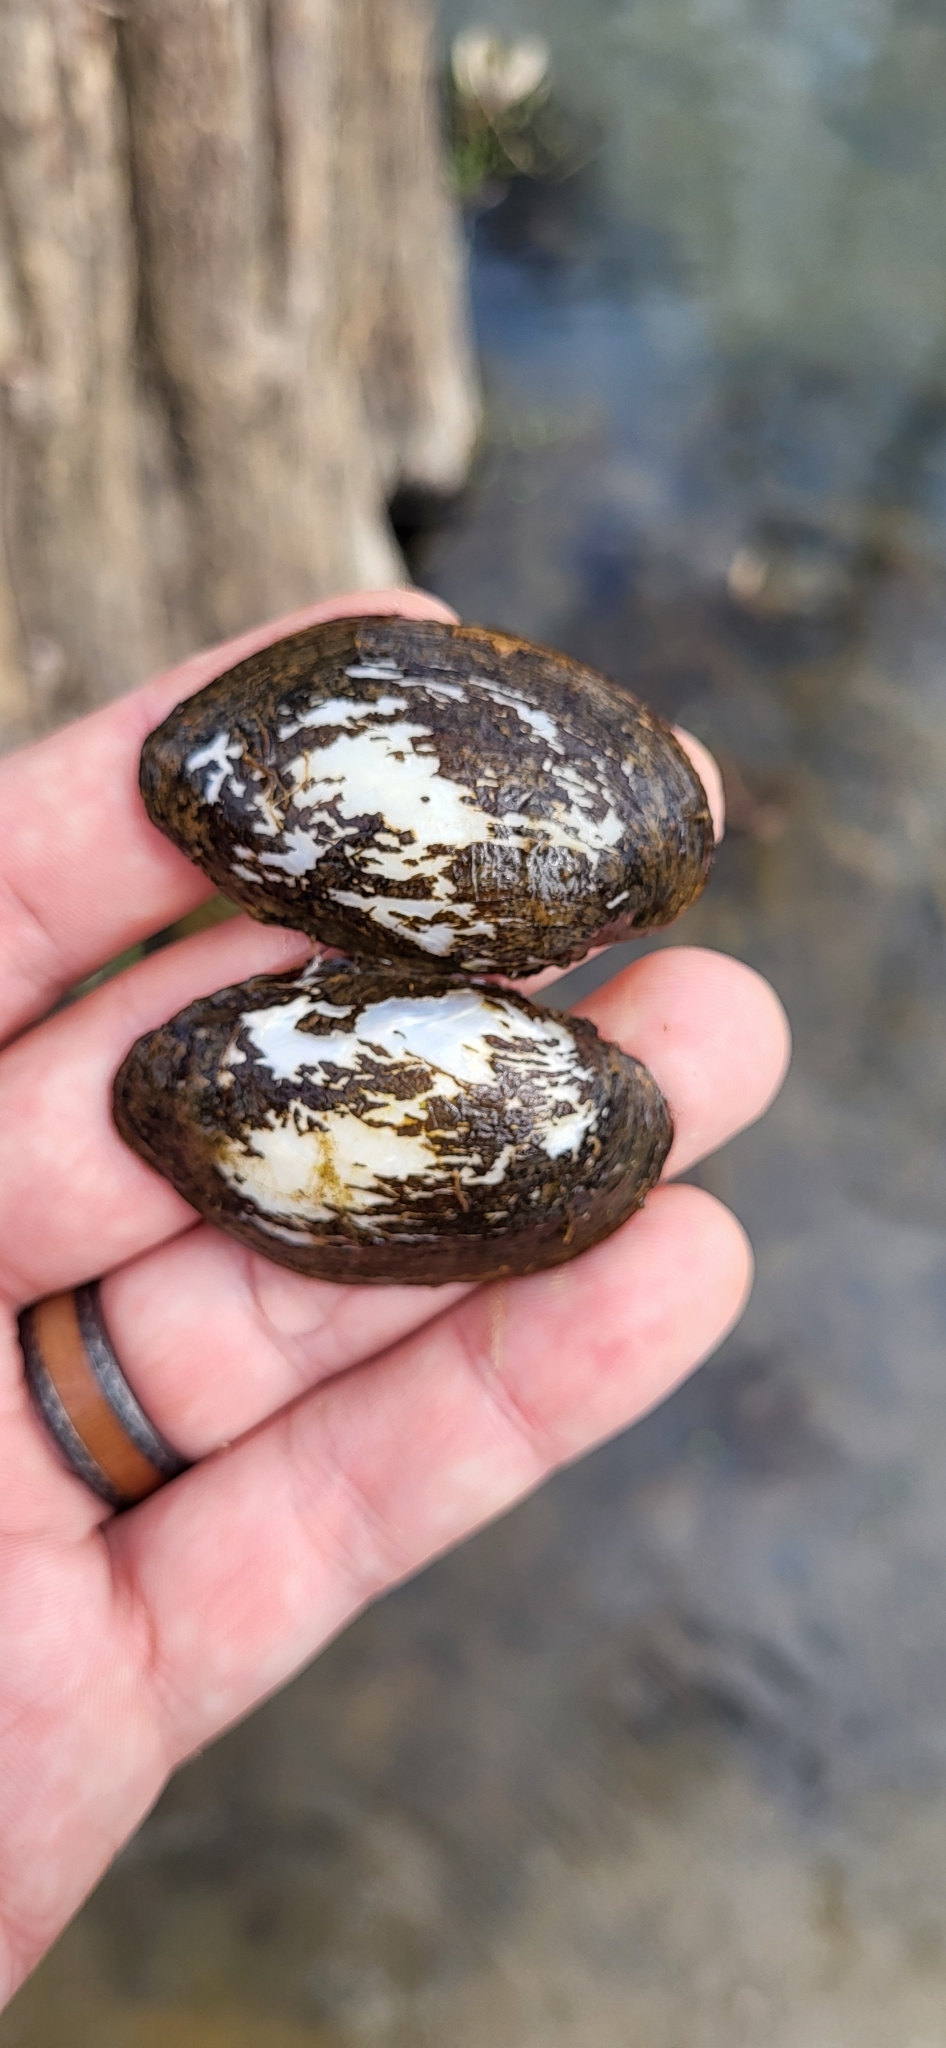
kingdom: Animalia
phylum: Mollusca
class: Bivalvia
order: Unionida
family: Unionidae
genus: Toxolasma
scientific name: Toxolasma texasiense
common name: Texas lilliput
